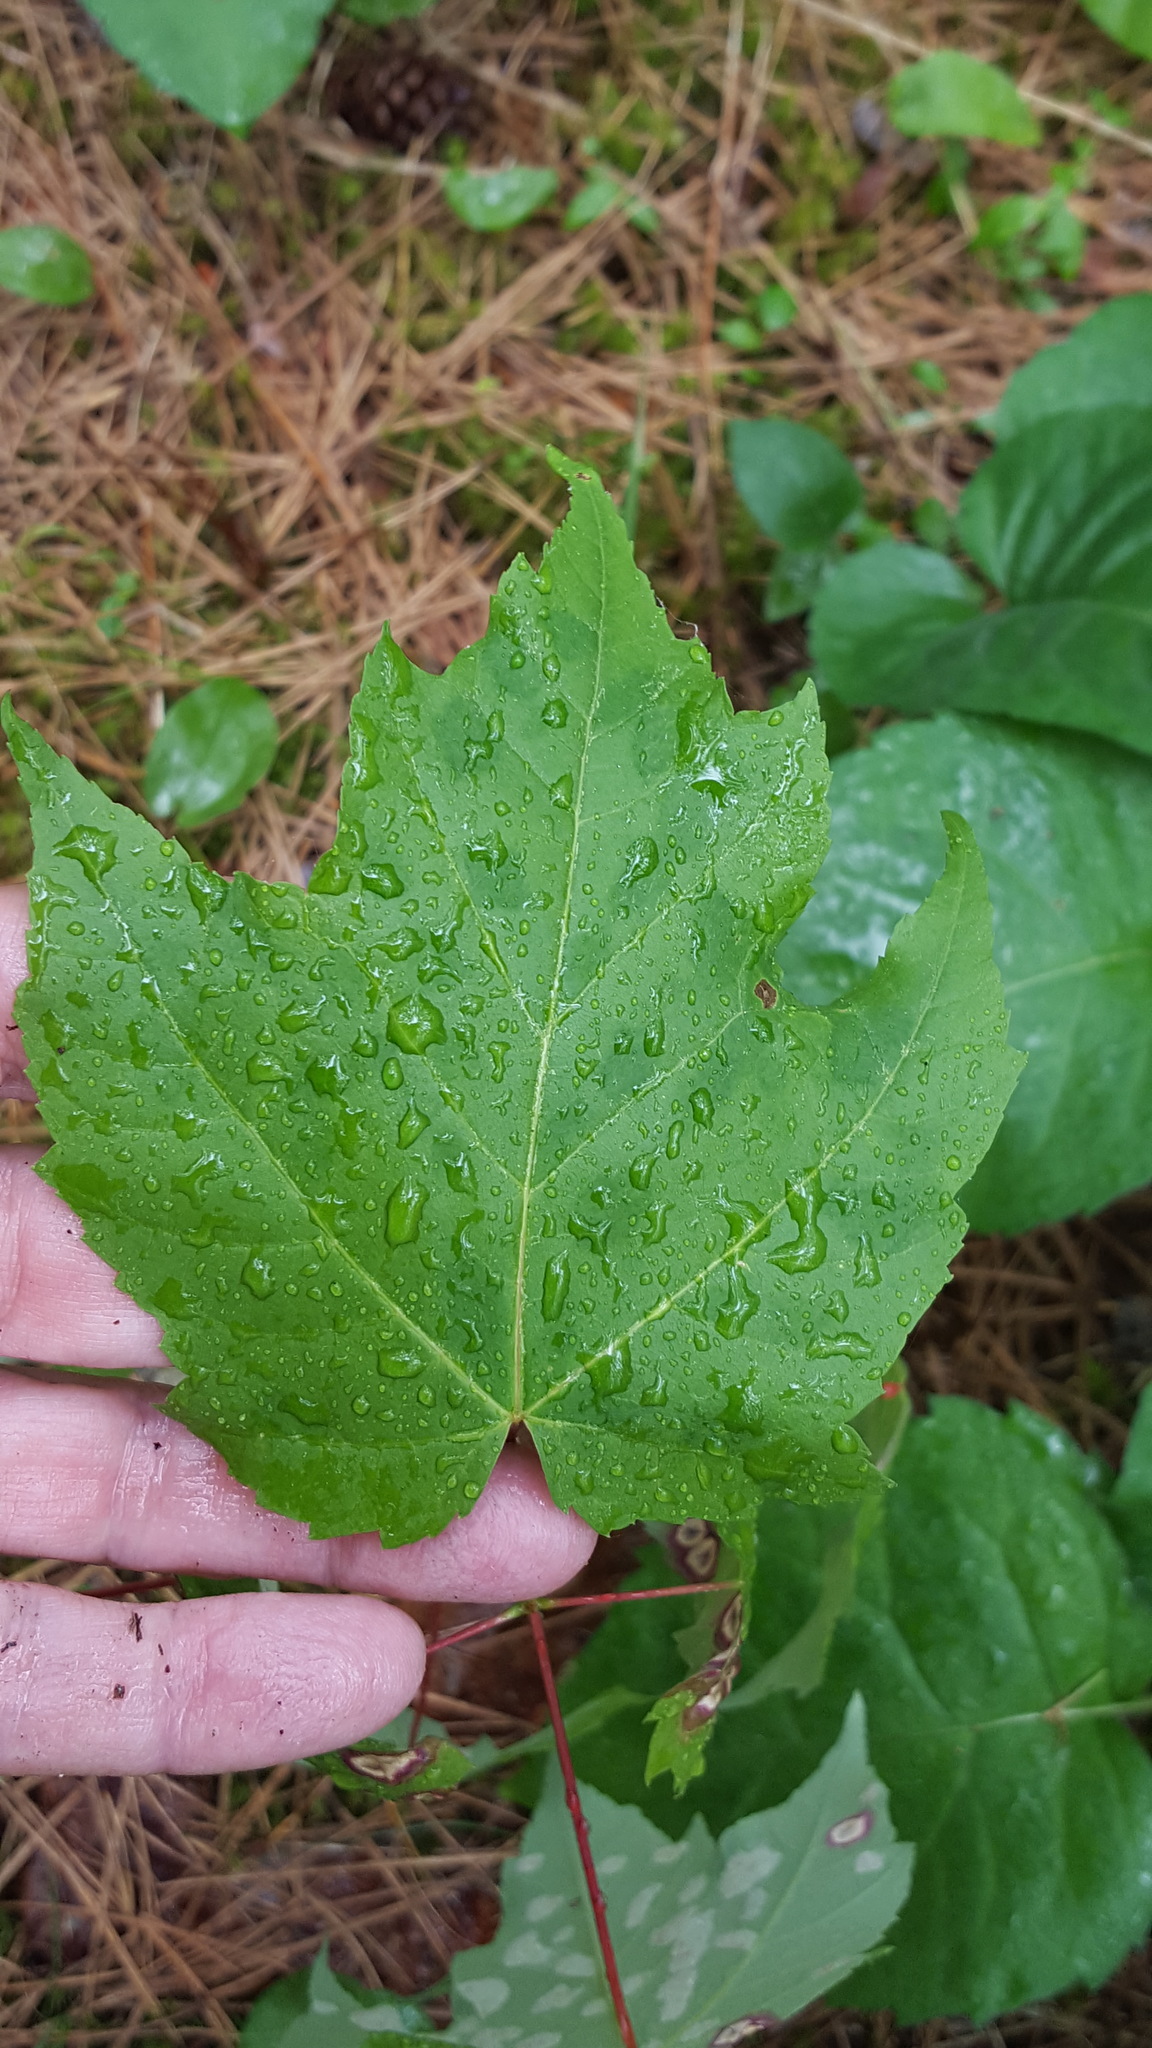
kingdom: Animalia
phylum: Arthropoda
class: Insecta
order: Diptera
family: Cecidomyiidae
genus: Acericecis
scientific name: Acericecis ocellaris
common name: Ocellate gall midge
